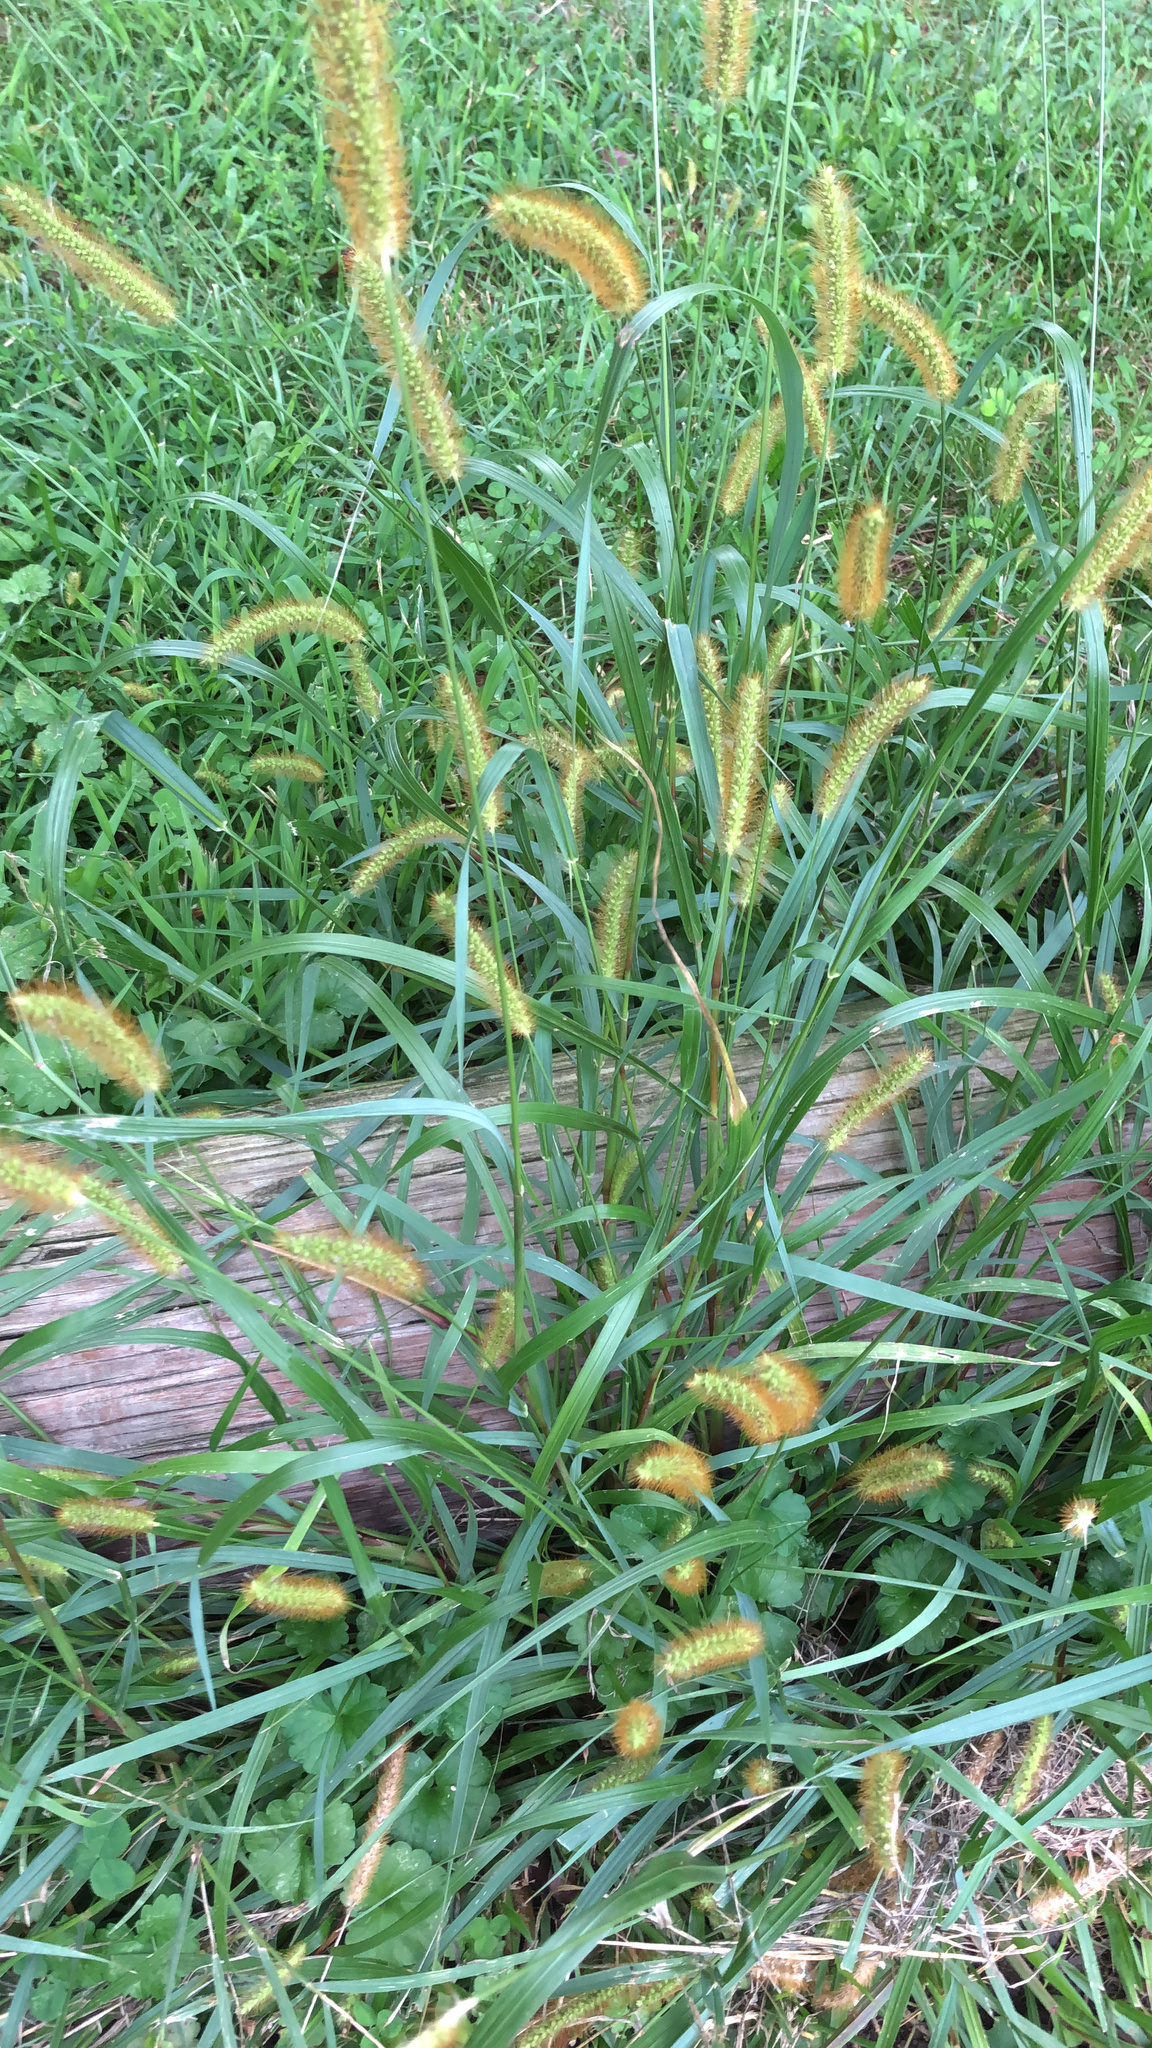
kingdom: Plantae
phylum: Tracheophyta
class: Liliopsida
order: Poales
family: Poaceae
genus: Setaria
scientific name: Setaria pumila
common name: Yellow bristle-grass
